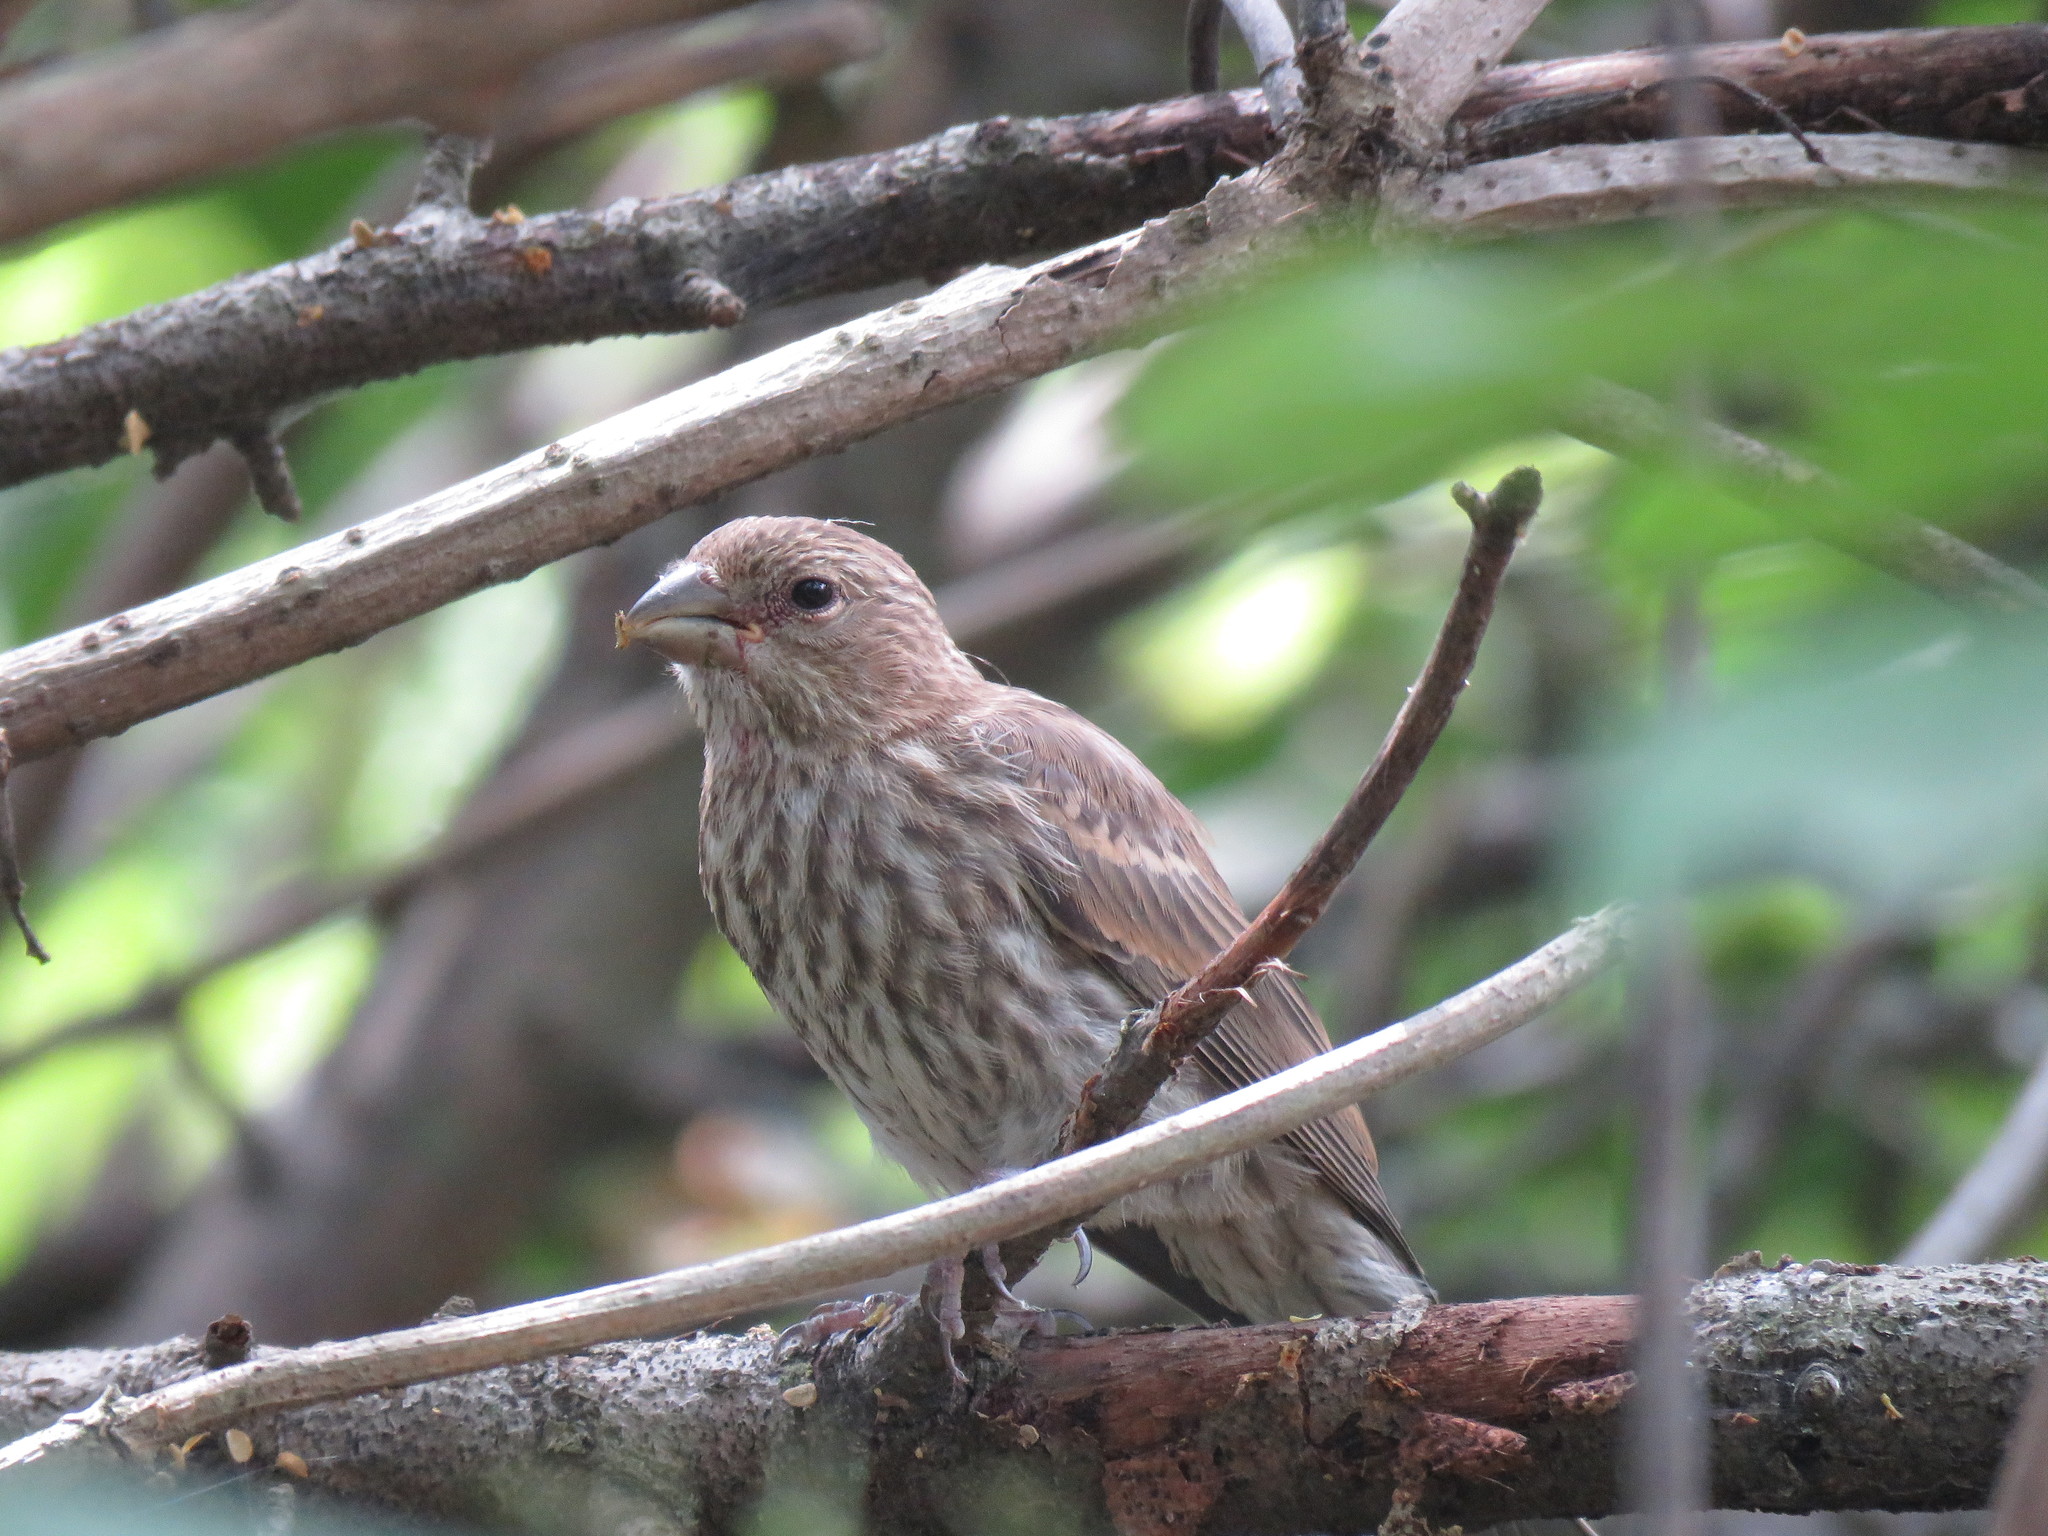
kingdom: Animalia
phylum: Chordata
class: Aves
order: Passeriformes
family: Fringillidae
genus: Haemorhous
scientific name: Haemorhous mexicanus
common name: House finch
